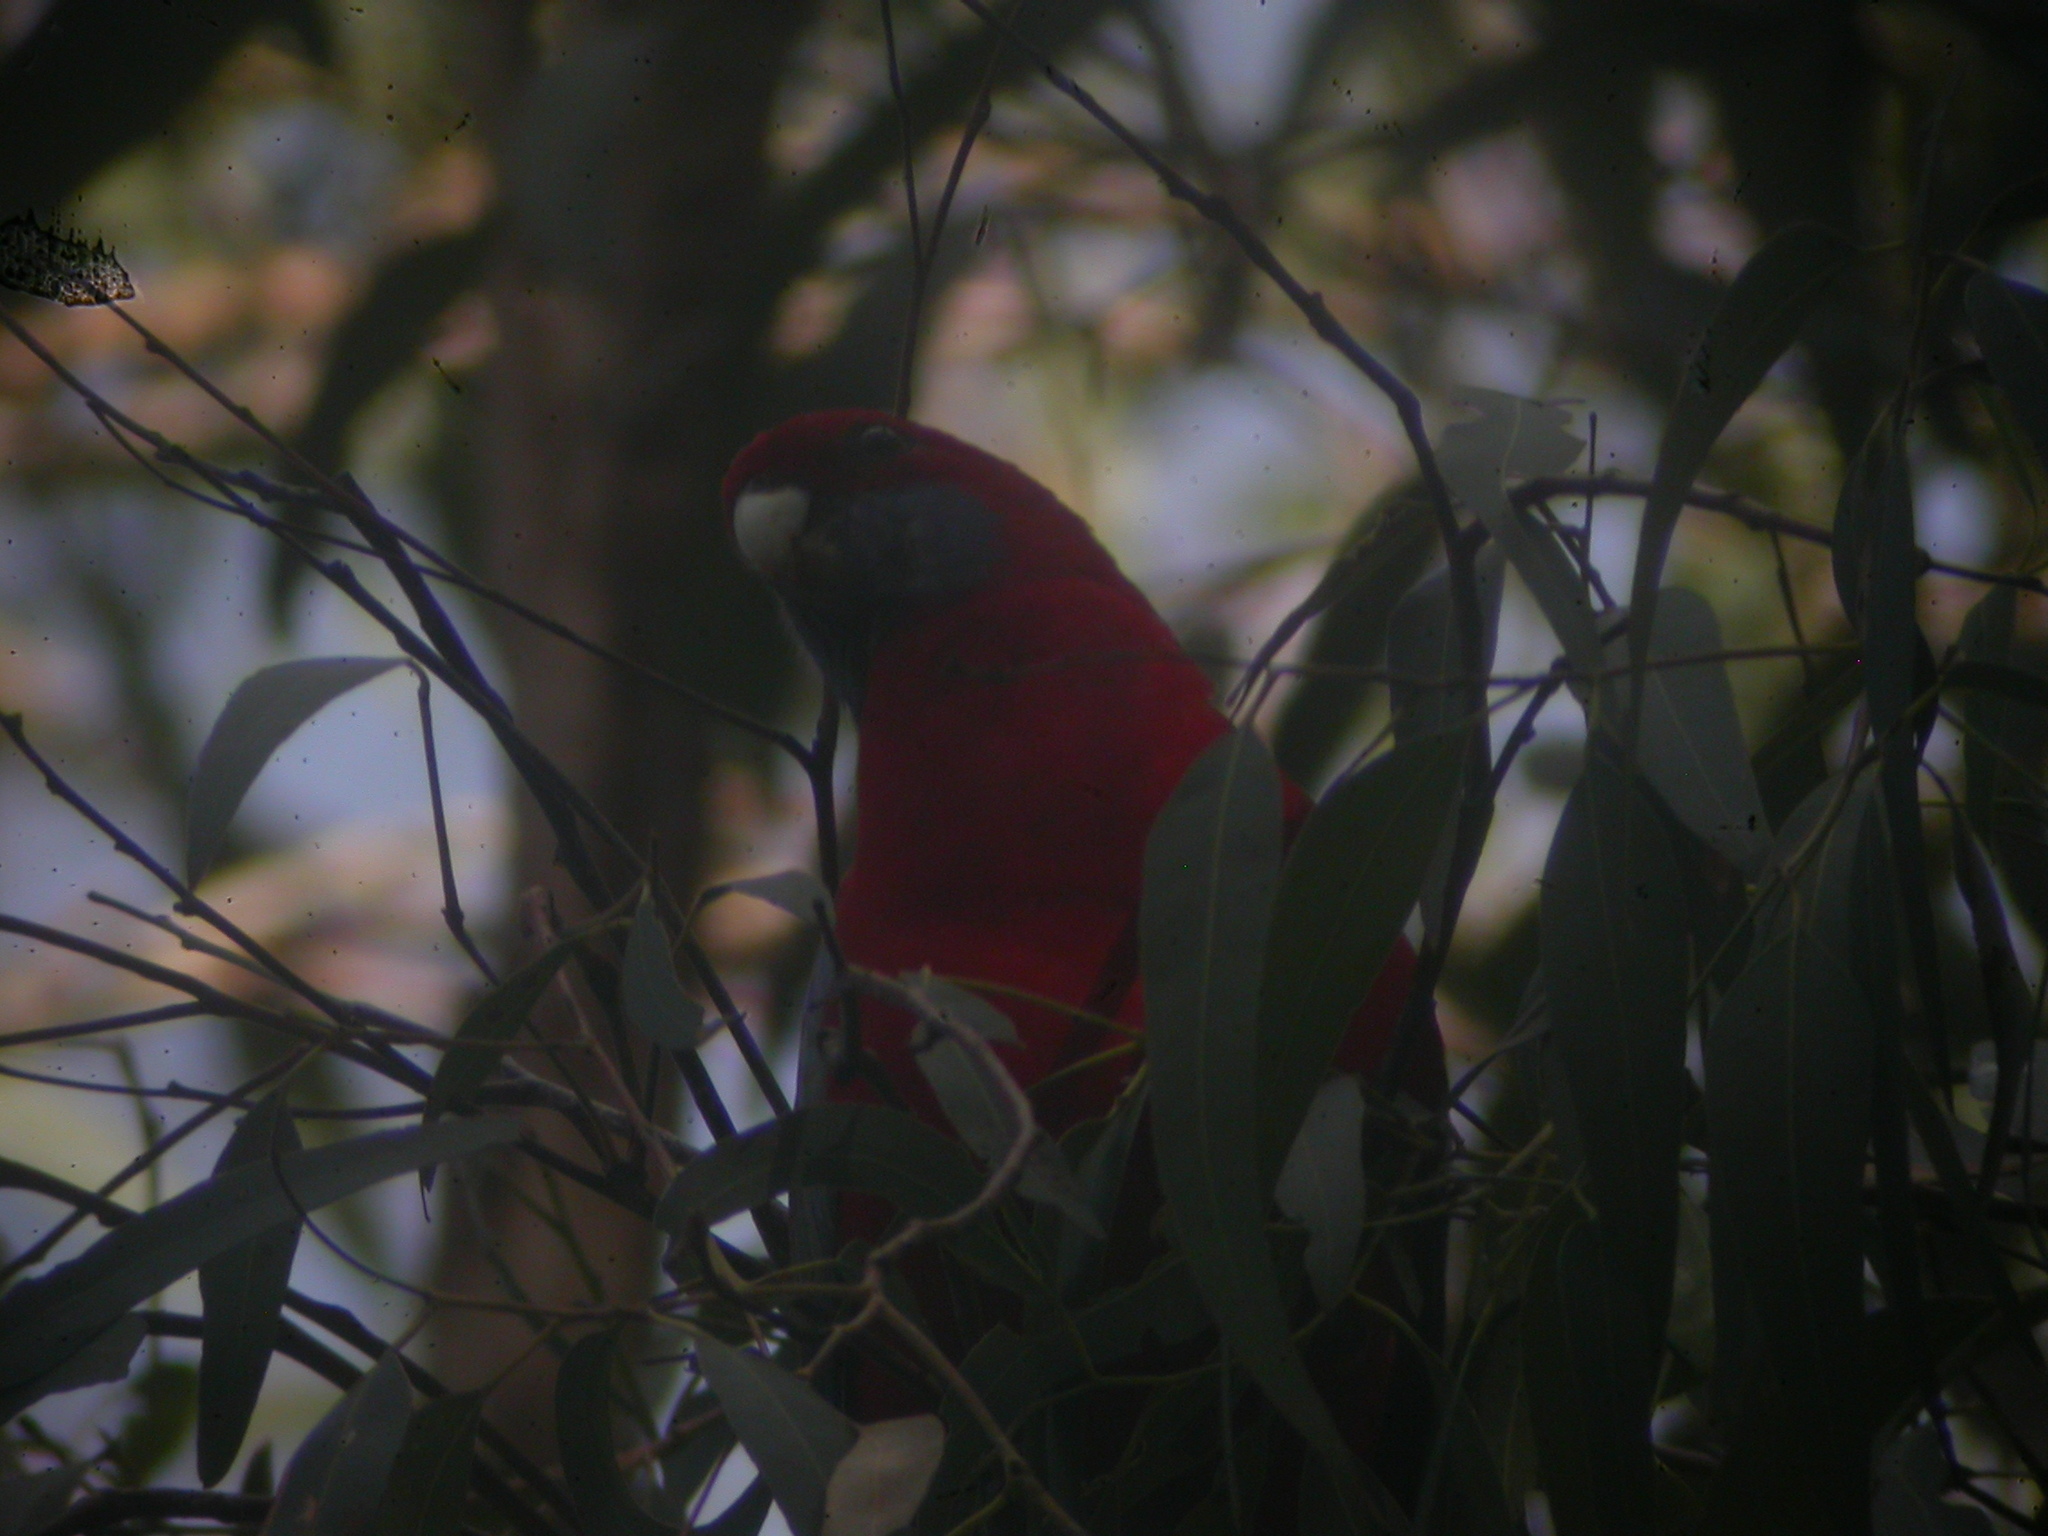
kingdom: Animalia
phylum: Chordata
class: Aves
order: Psittaciformes
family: Psittacidae
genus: Platycercus
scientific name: Platycercus elegans
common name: Crimson rosella
